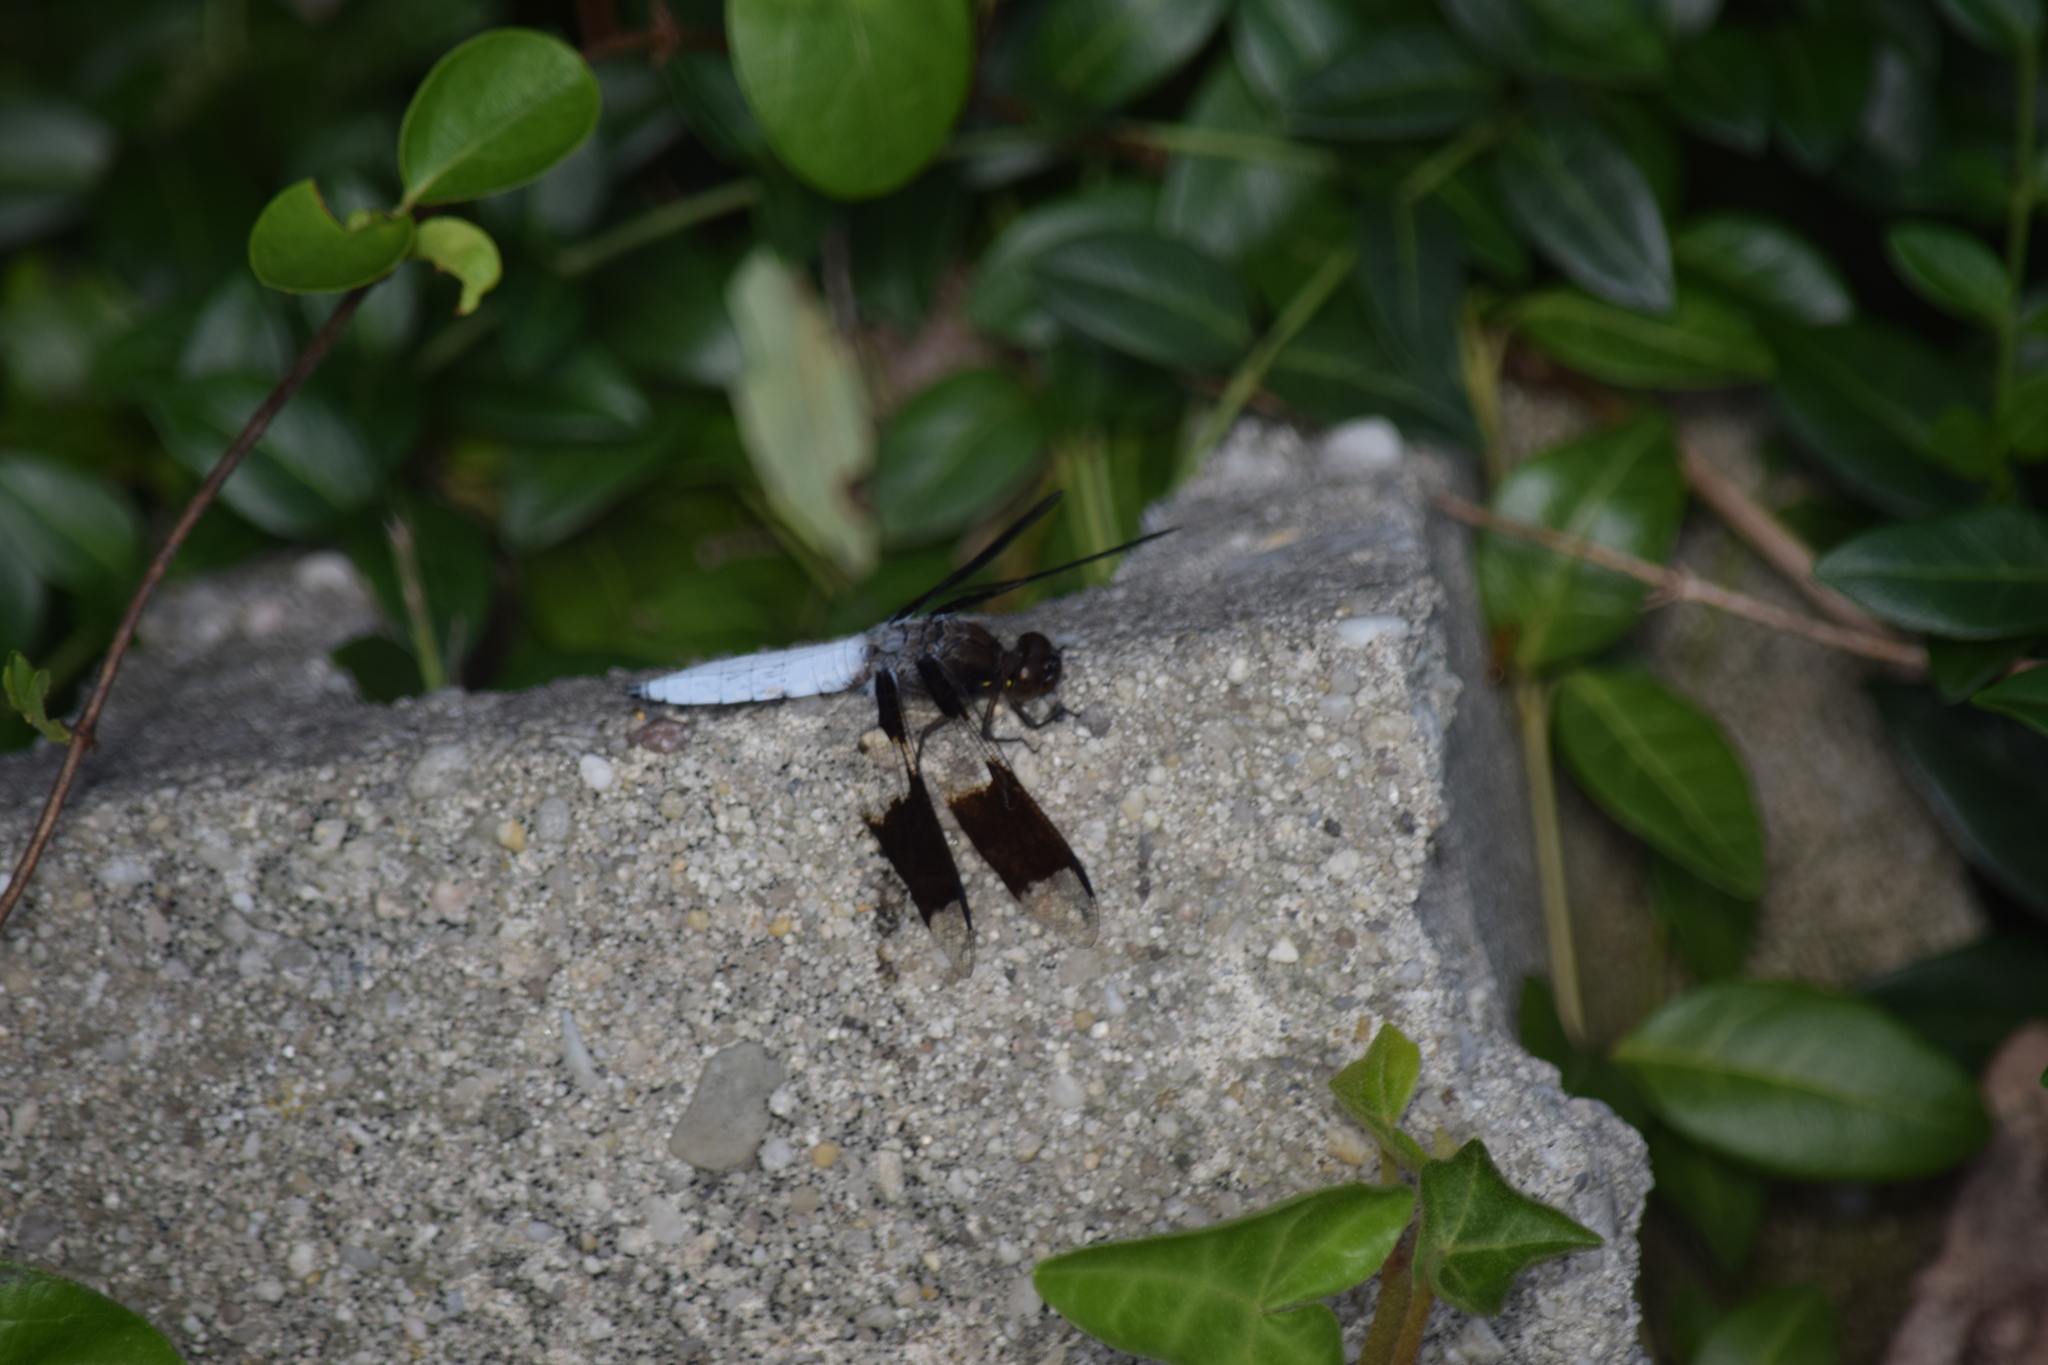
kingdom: Animalia
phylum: Arthropoda
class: Insecta
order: Odonata
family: Libellulidae
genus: Plathemis
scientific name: Plathemis lydia
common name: Common whitetail
